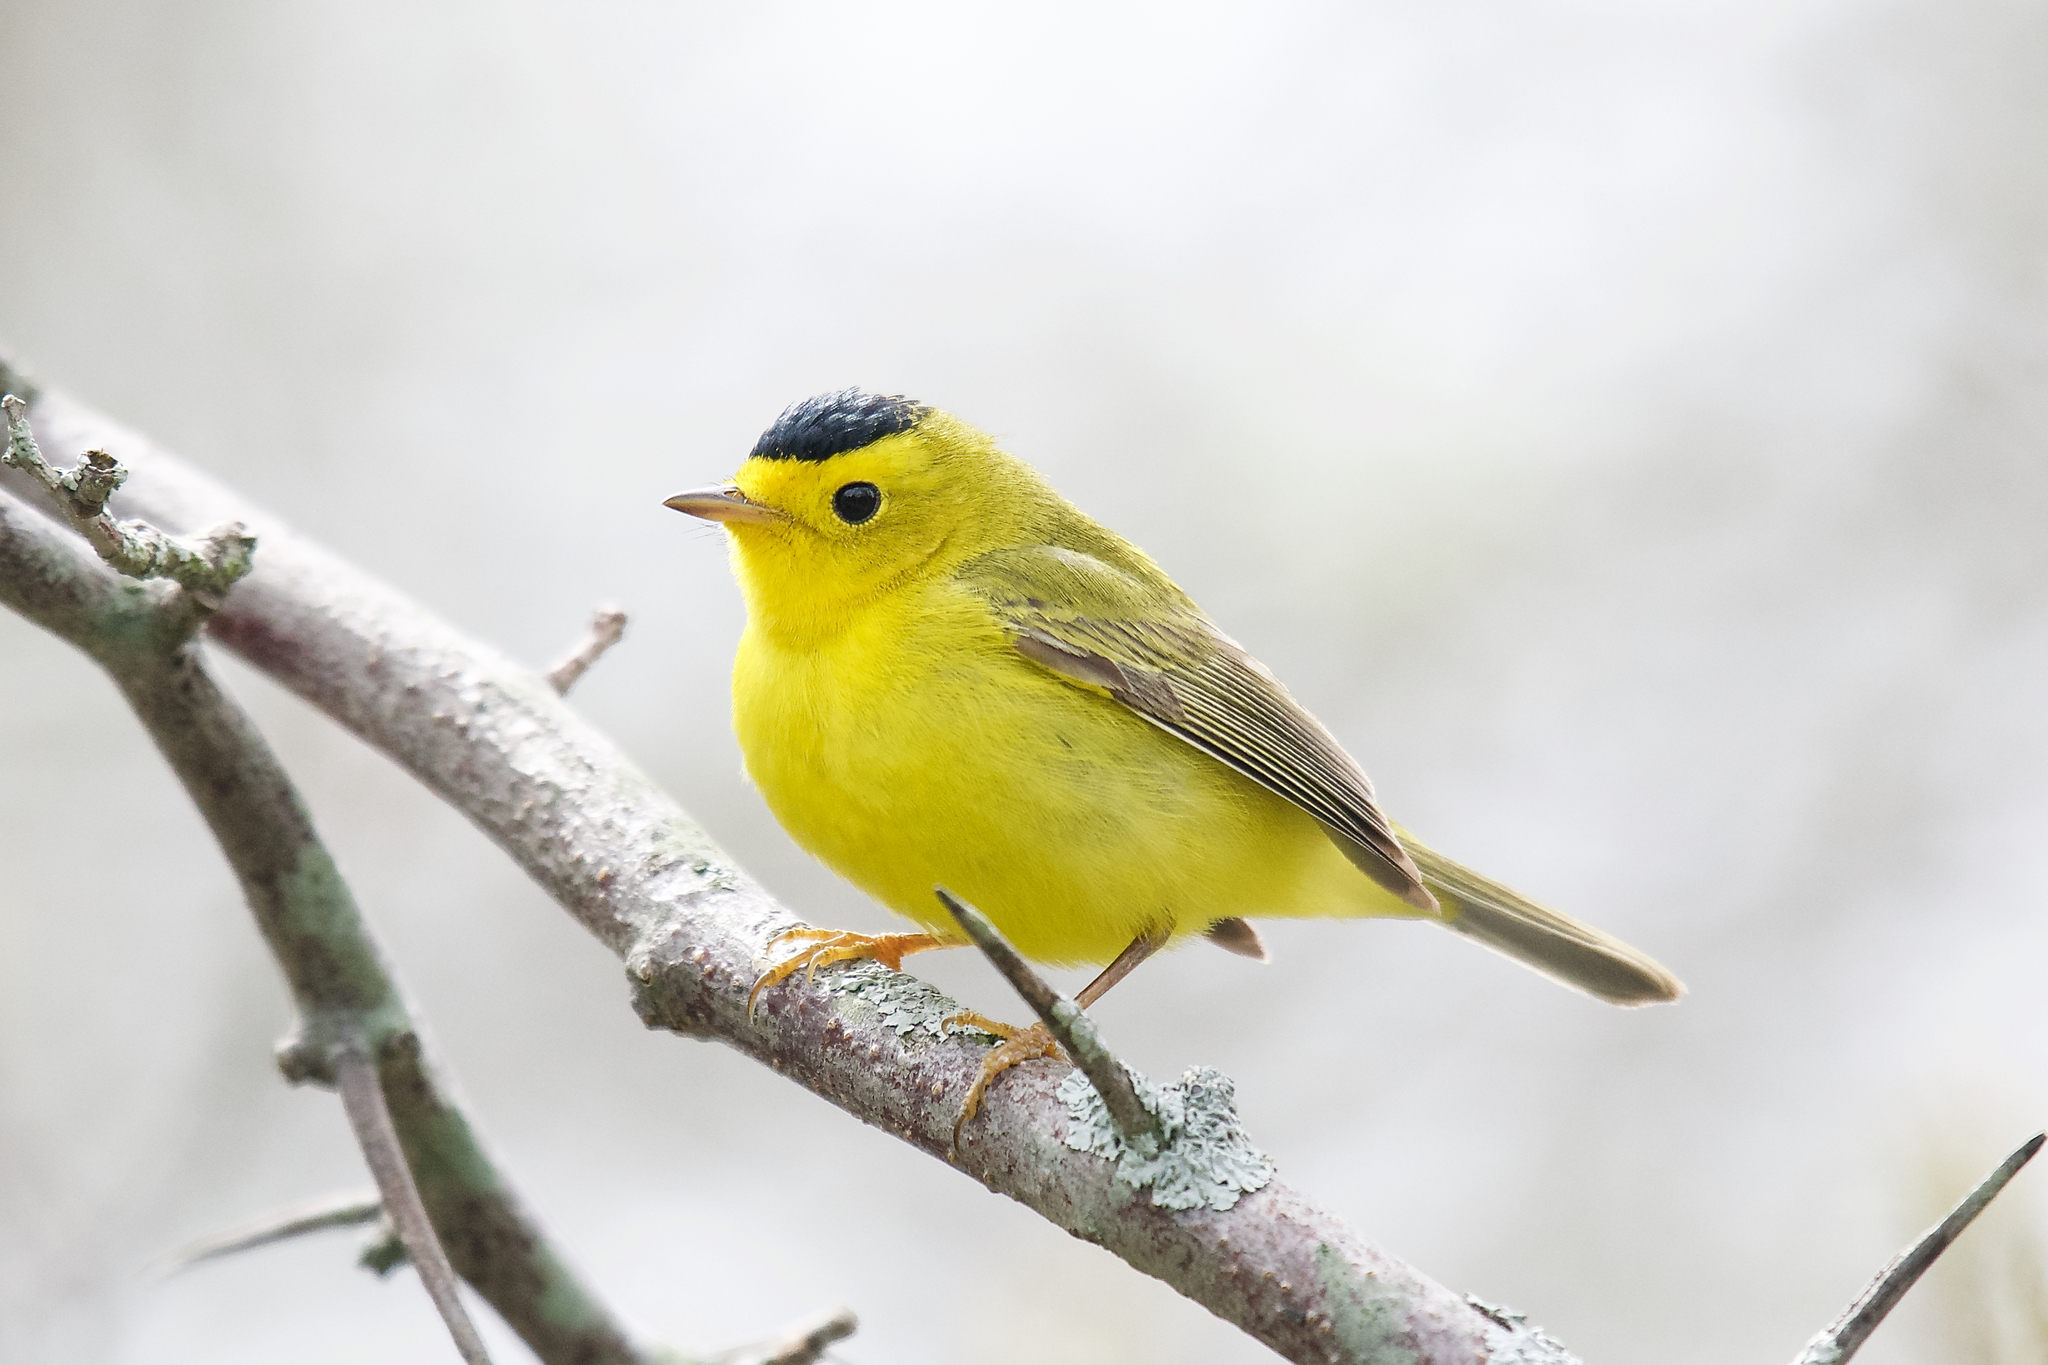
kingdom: Animalia
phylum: Chordata
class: Aves
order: Passeriformes
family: Parulidae
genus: Cardellina
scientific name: Cardellina pusilla
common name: Wilson's warbler
